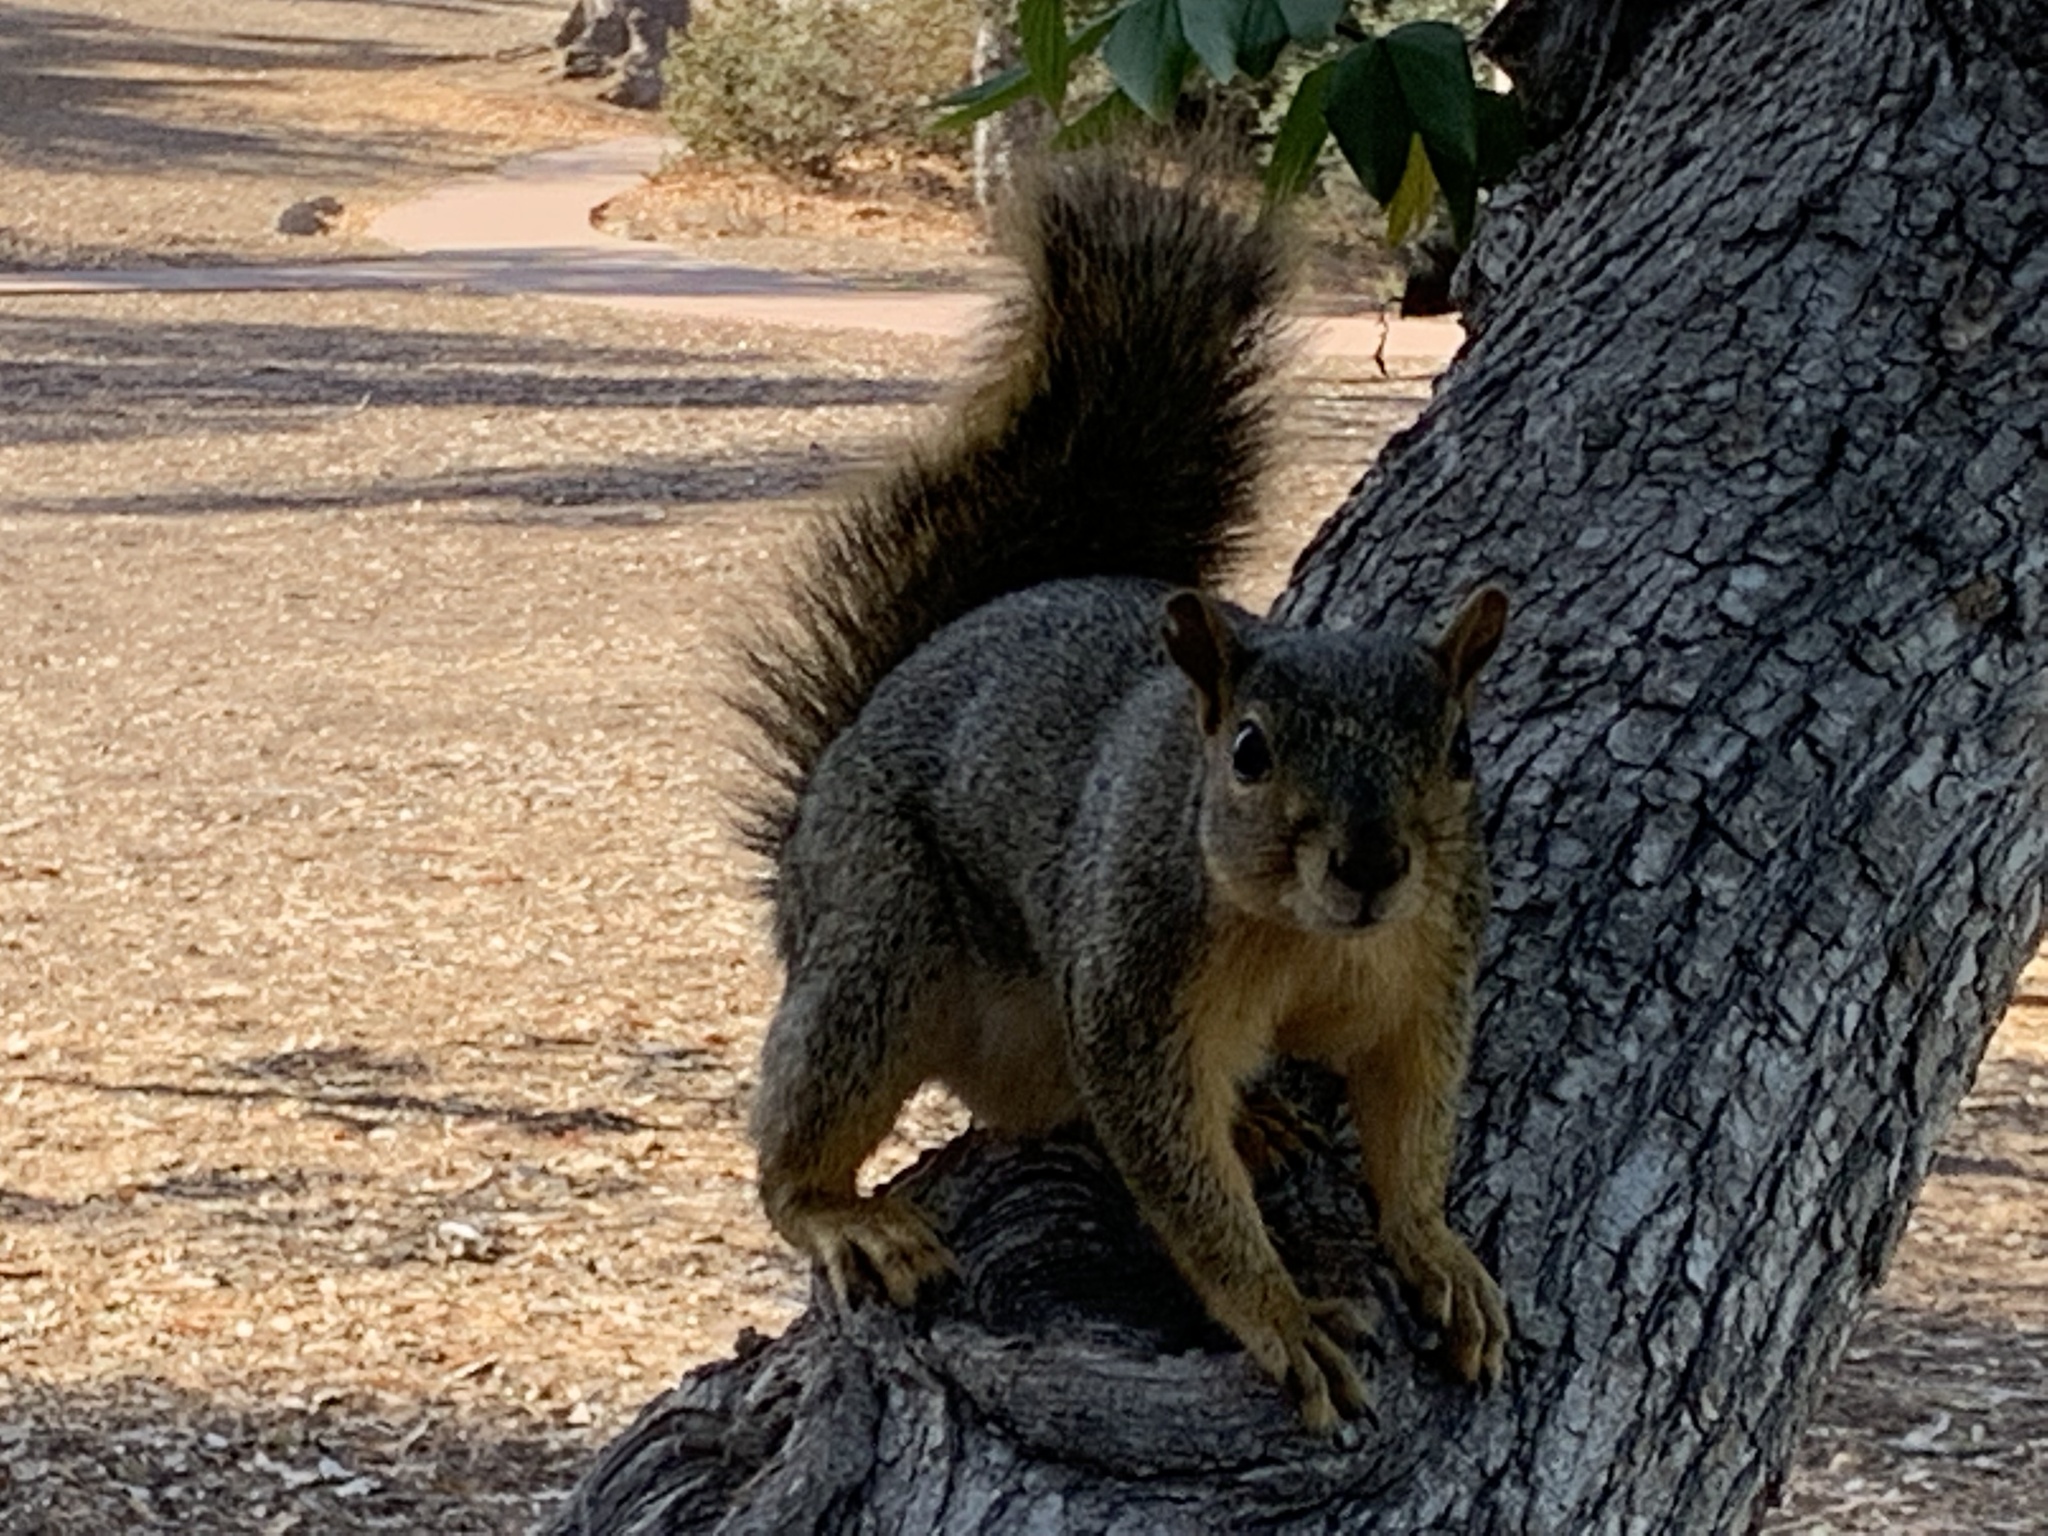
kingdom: Animalia
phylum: Chordata
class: Mammalia
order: Rodentia
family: Sciuridae
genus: Sciurus
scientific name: Sciurus niger
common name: Fox squirrel
